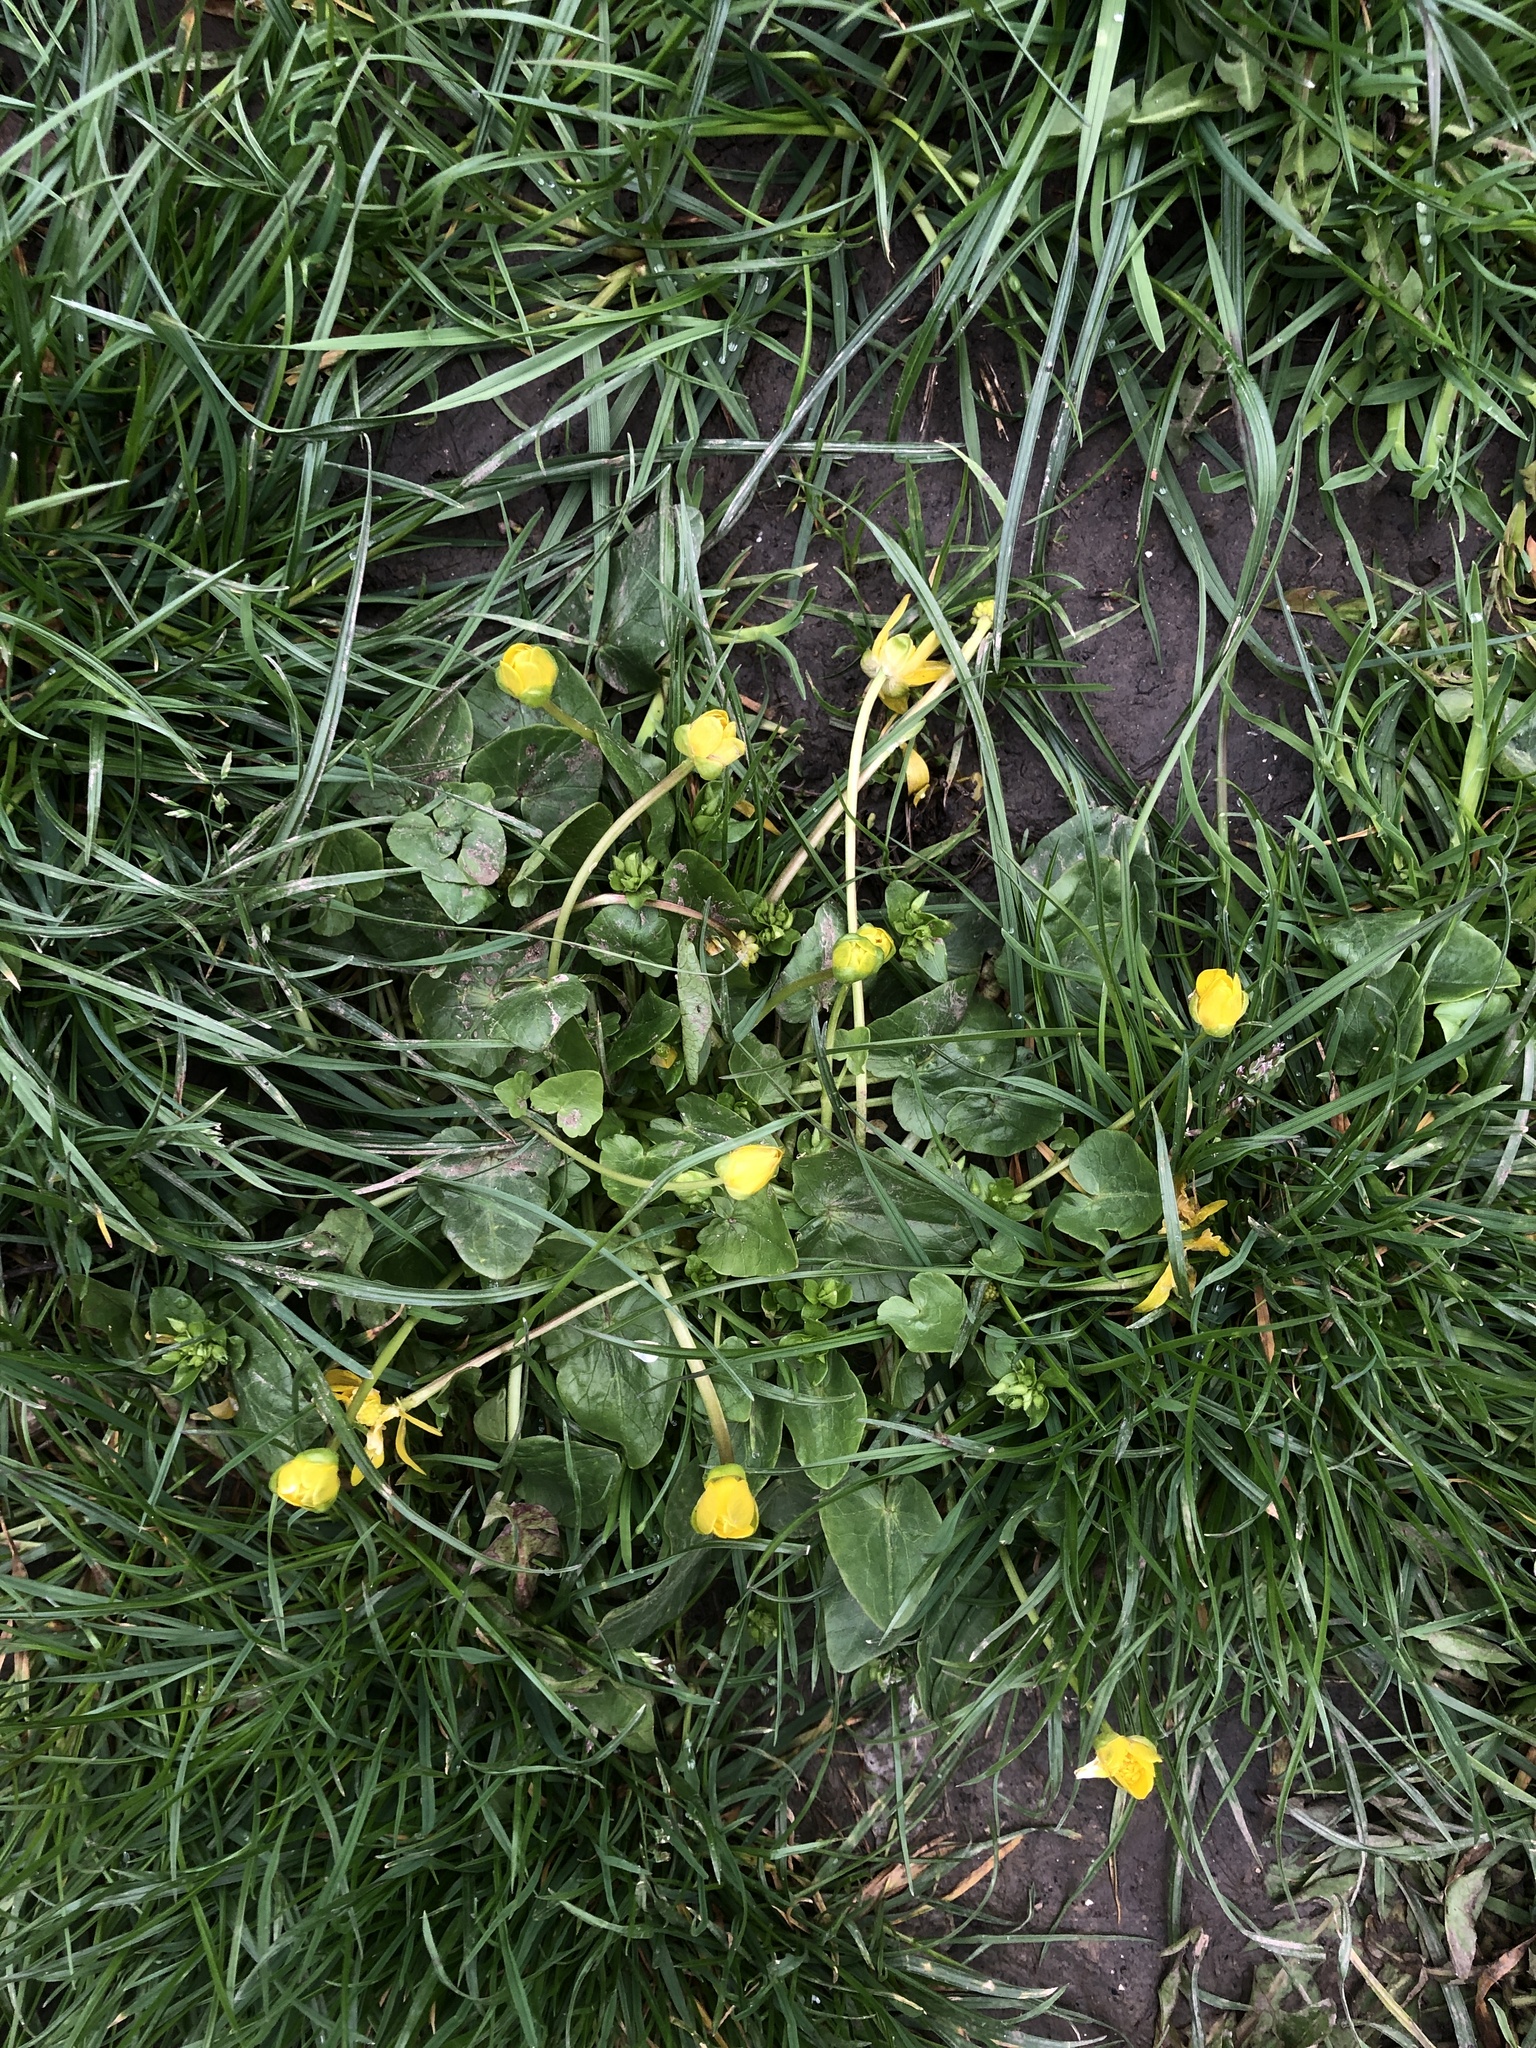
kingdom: Plantae
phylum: Tracheophyta
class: Magnoliopsida
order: Ranunculales
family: Ranunculaceae
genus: Ficaria
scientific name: Ficaria verna
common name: Lesser celandine
